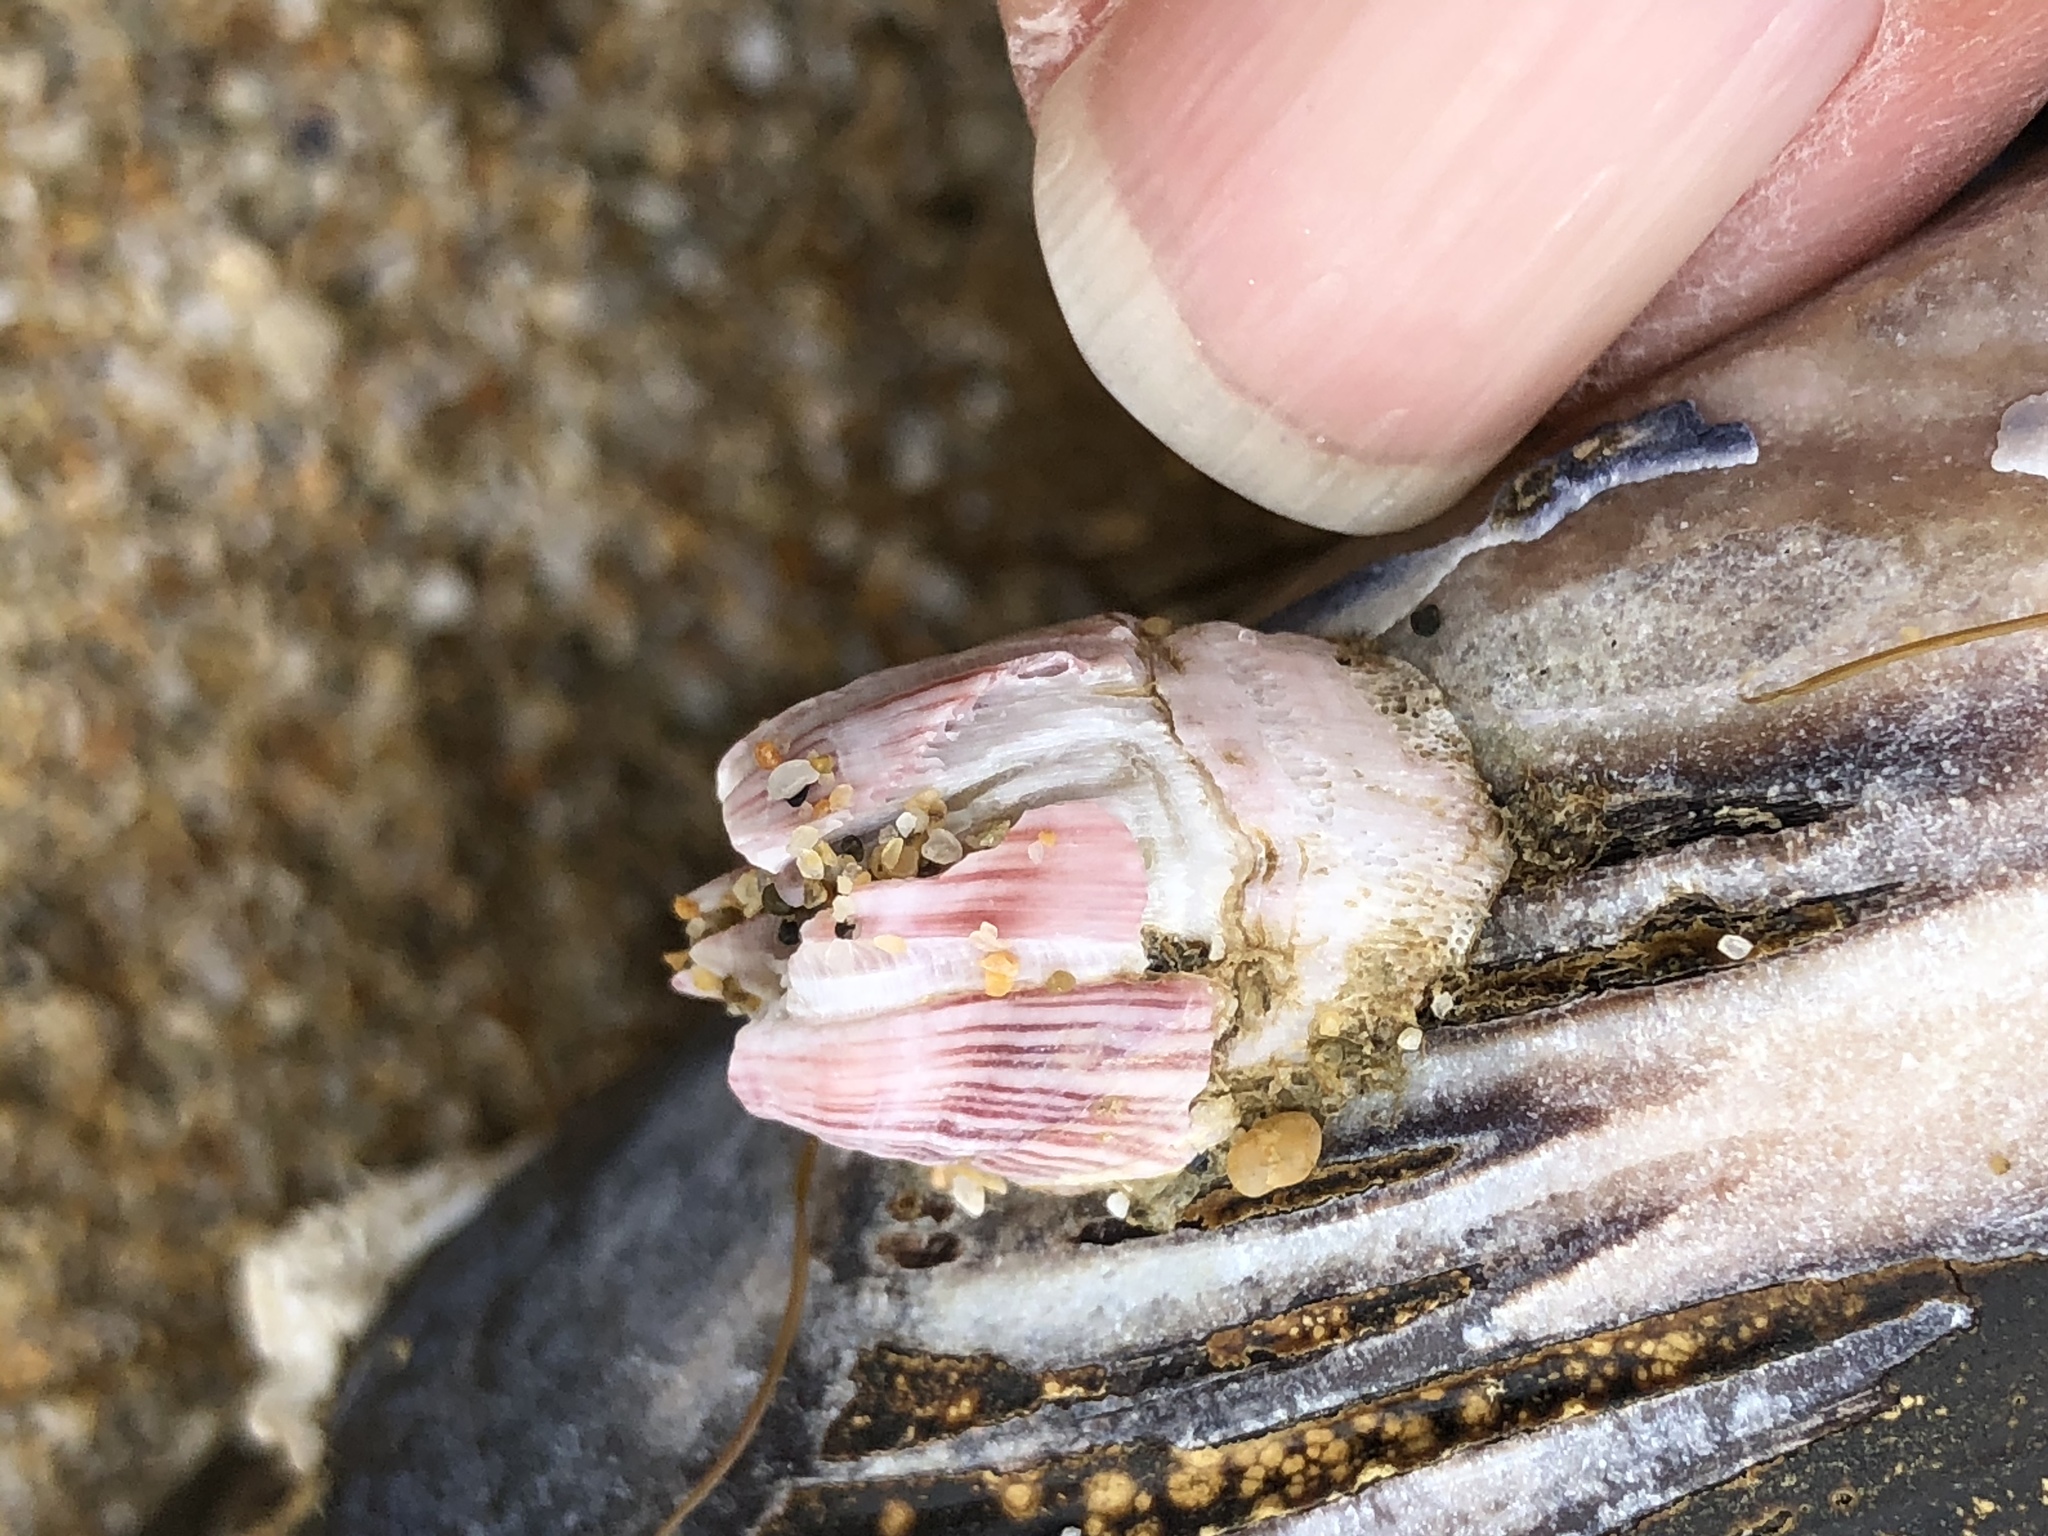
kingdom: Animalia
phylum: Arthropoda
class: Maxillopoda
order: Sessilia
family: Balanidae
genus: Megabalanus
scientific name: Megabalanus californicus
